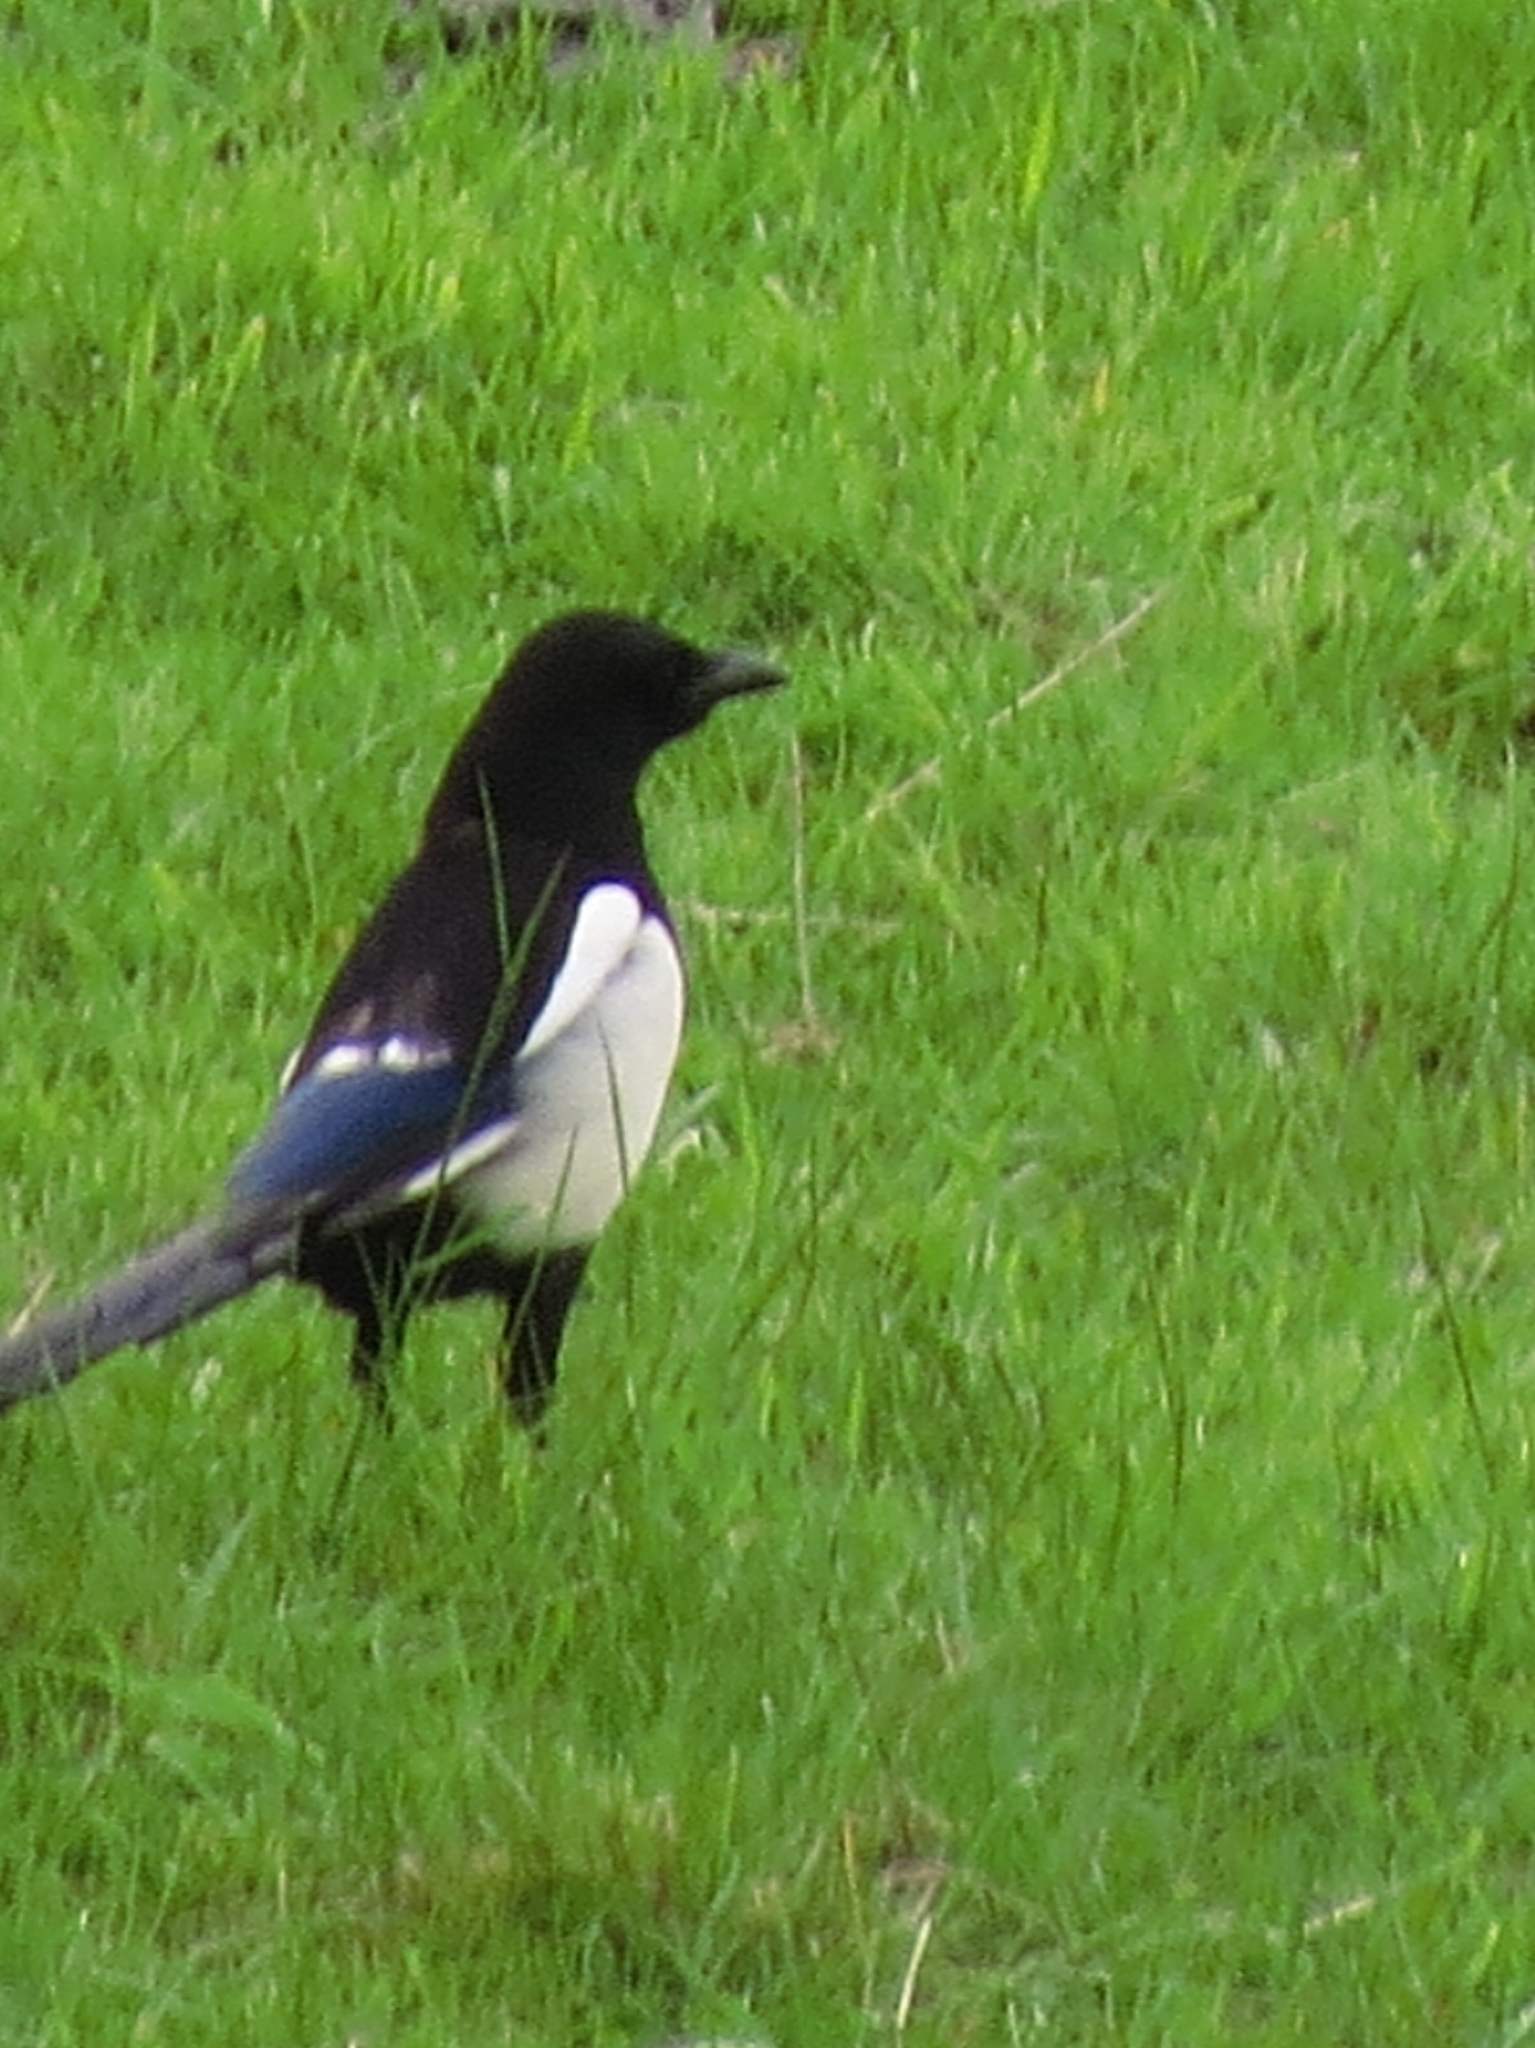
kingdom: Animalia
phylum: Chordata
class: Aves
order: Passeriformes
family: Corvidae
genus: Pica
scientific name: Pica pica
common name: Eurasian magpie
